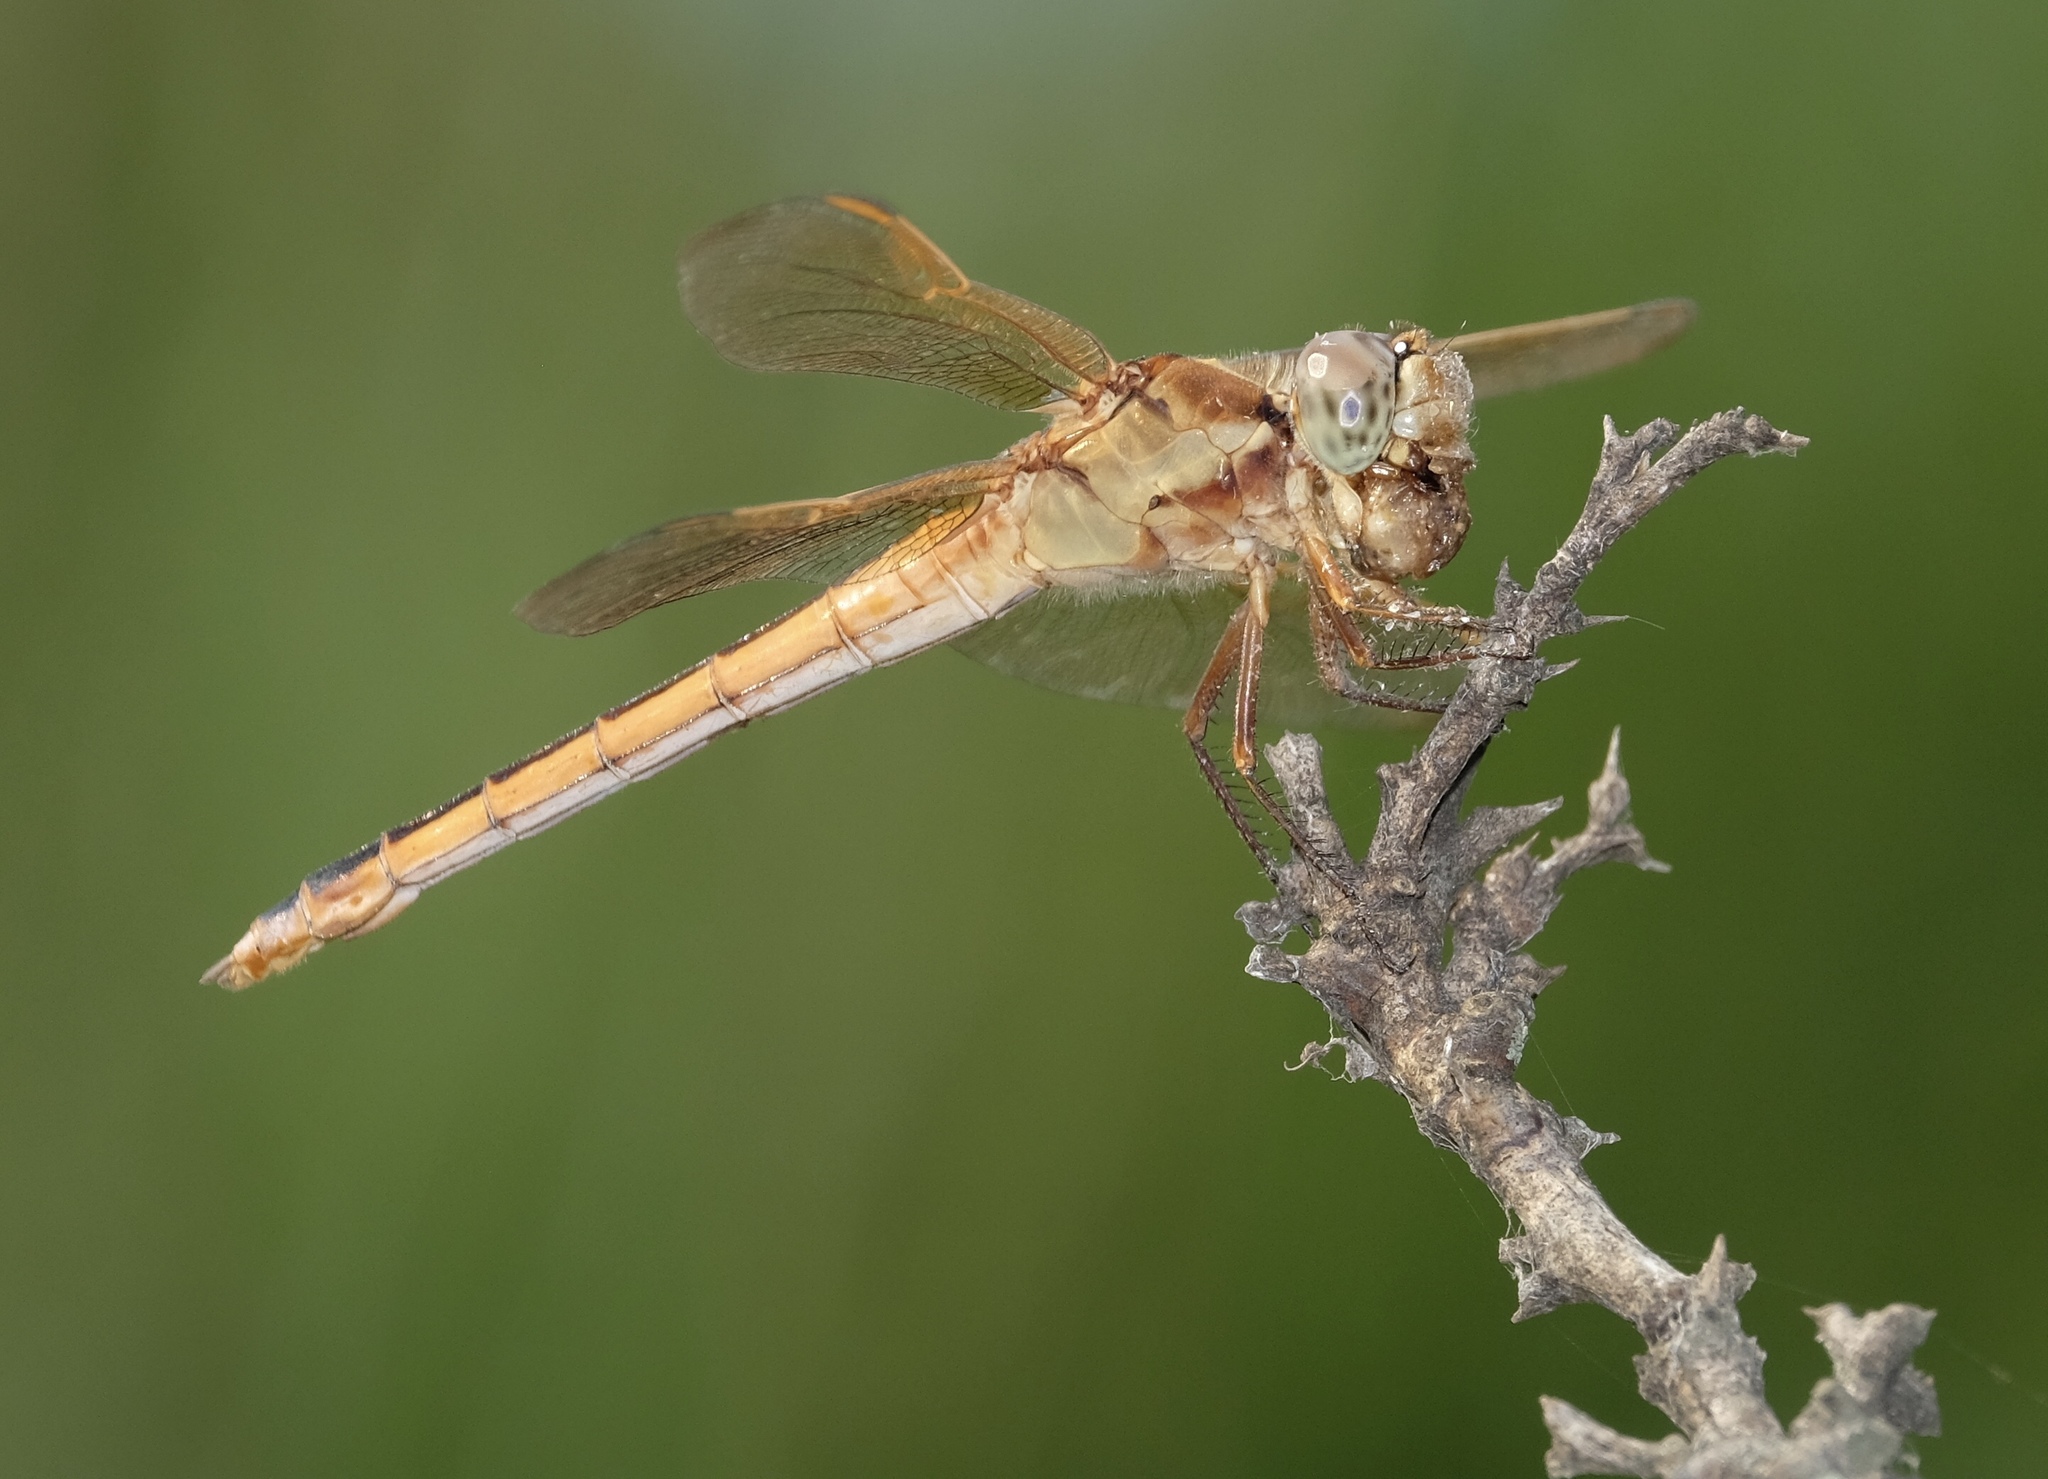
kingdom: Animalia
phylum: Arthropoda
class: Insecta
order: Odonata
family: Libellulidae
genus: Libellula
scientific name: Libellula needhami
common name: Needham's skimmer
